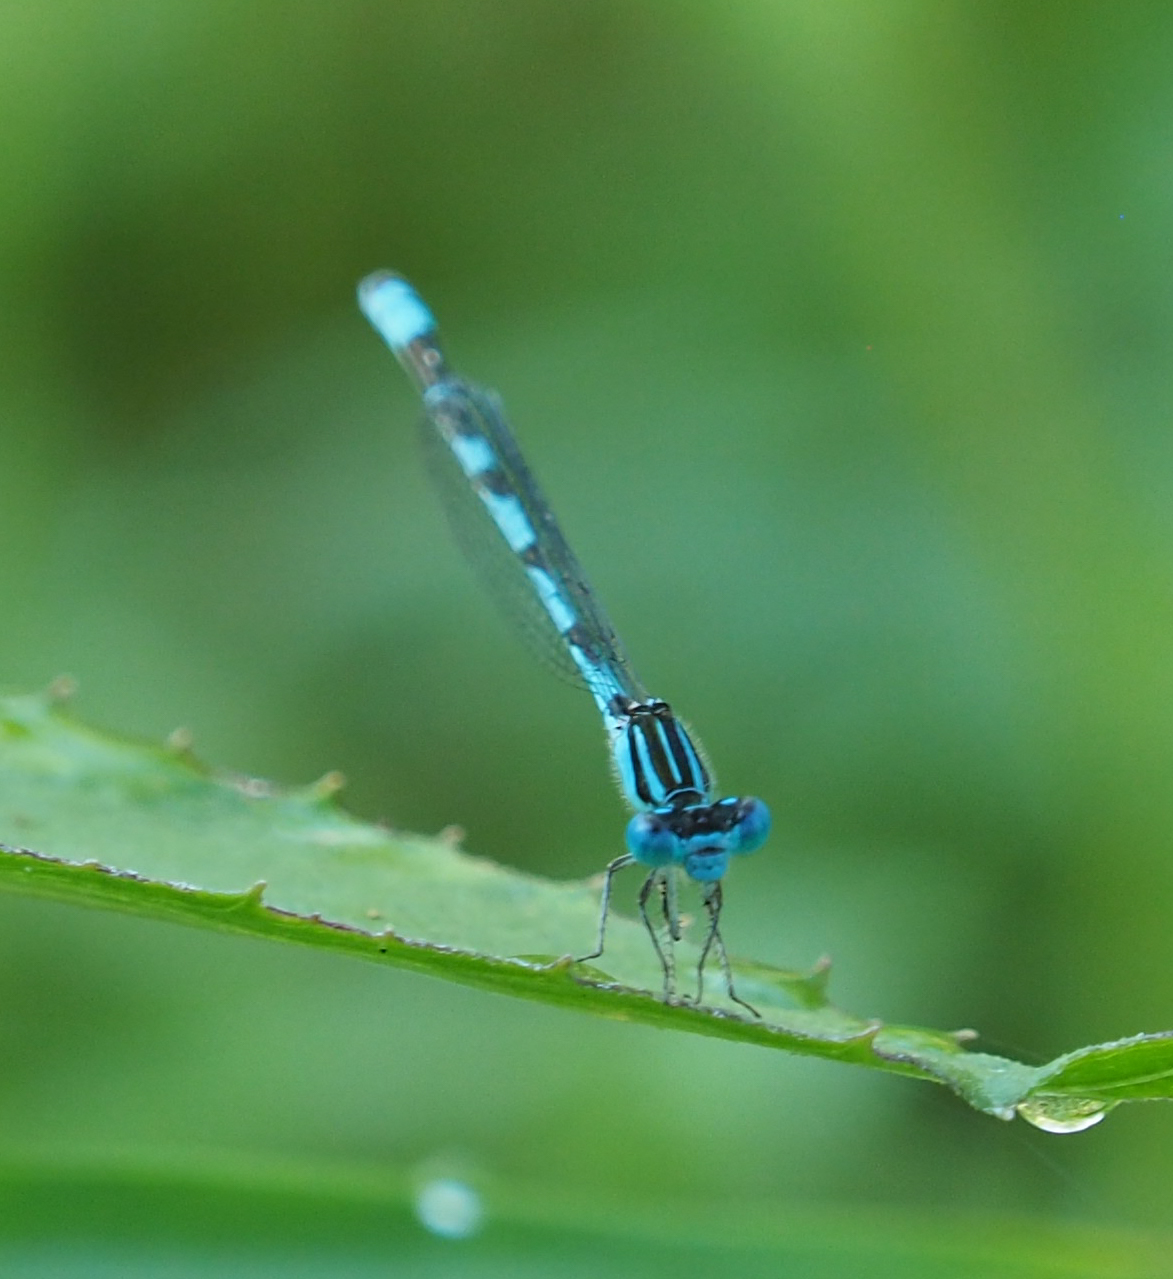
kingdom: Animalia
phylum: Arthropoda
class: Insecta
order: Odonata
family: Coenagrionidae
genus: Enallagma
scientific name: Enallagma durum
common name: Big bluet
